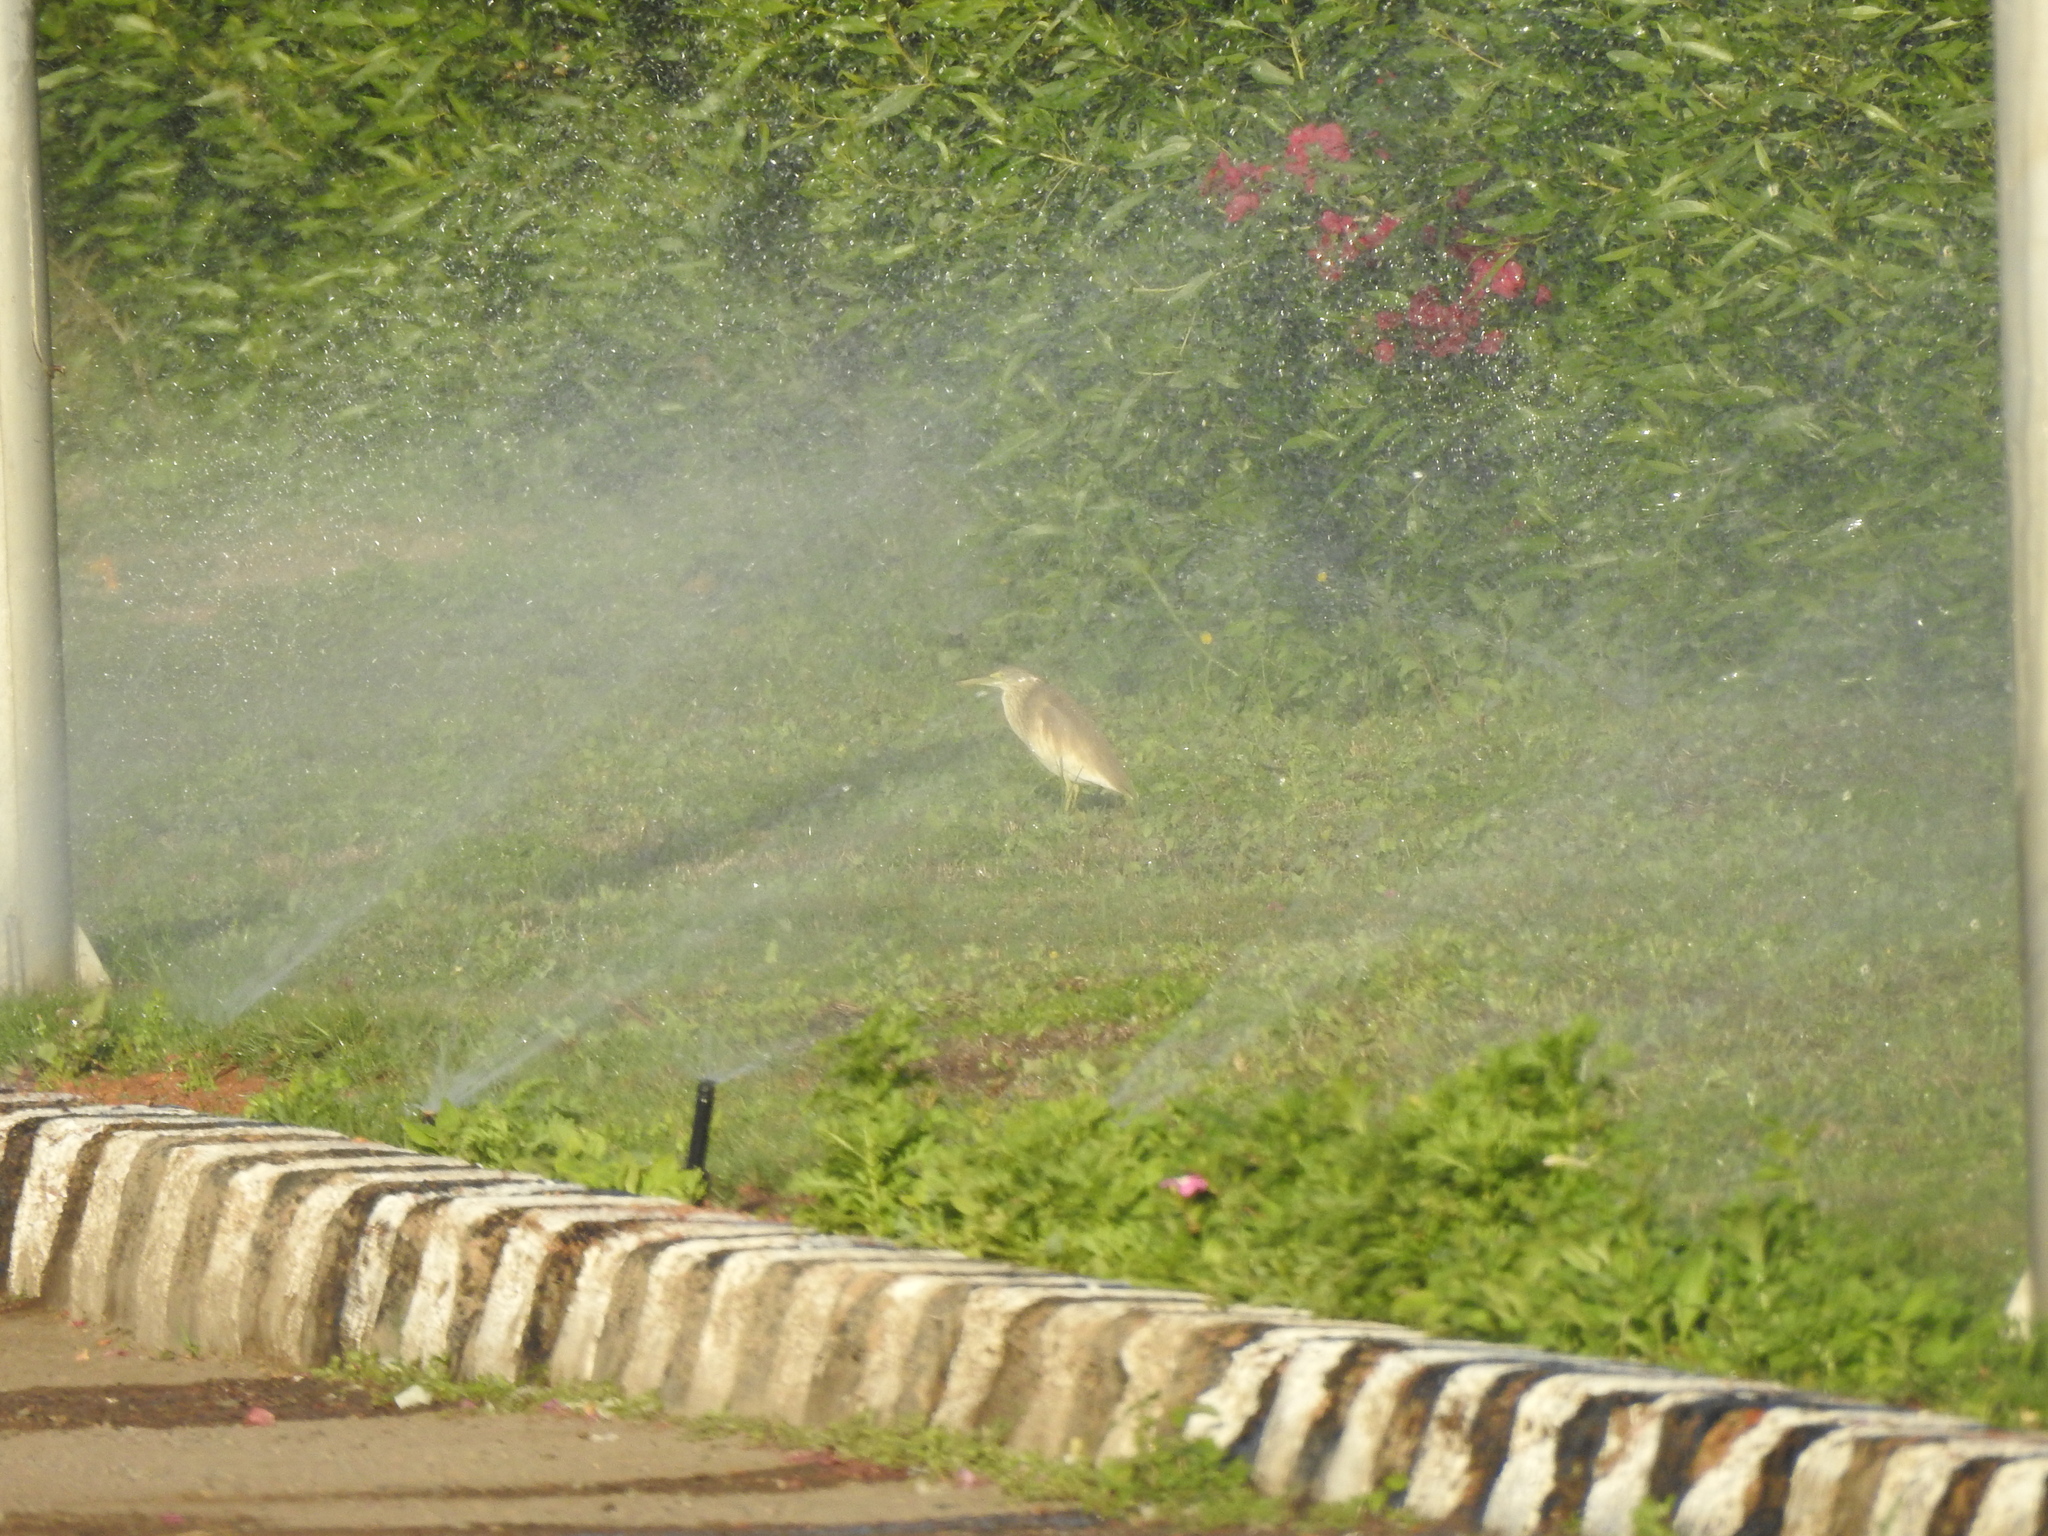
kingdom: Animalia
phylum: Chordata
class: Aves
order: Pelecaniformes
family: Ardeidae
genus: Ardeola
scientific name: Ardeola ralloides
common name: Squacco heron
